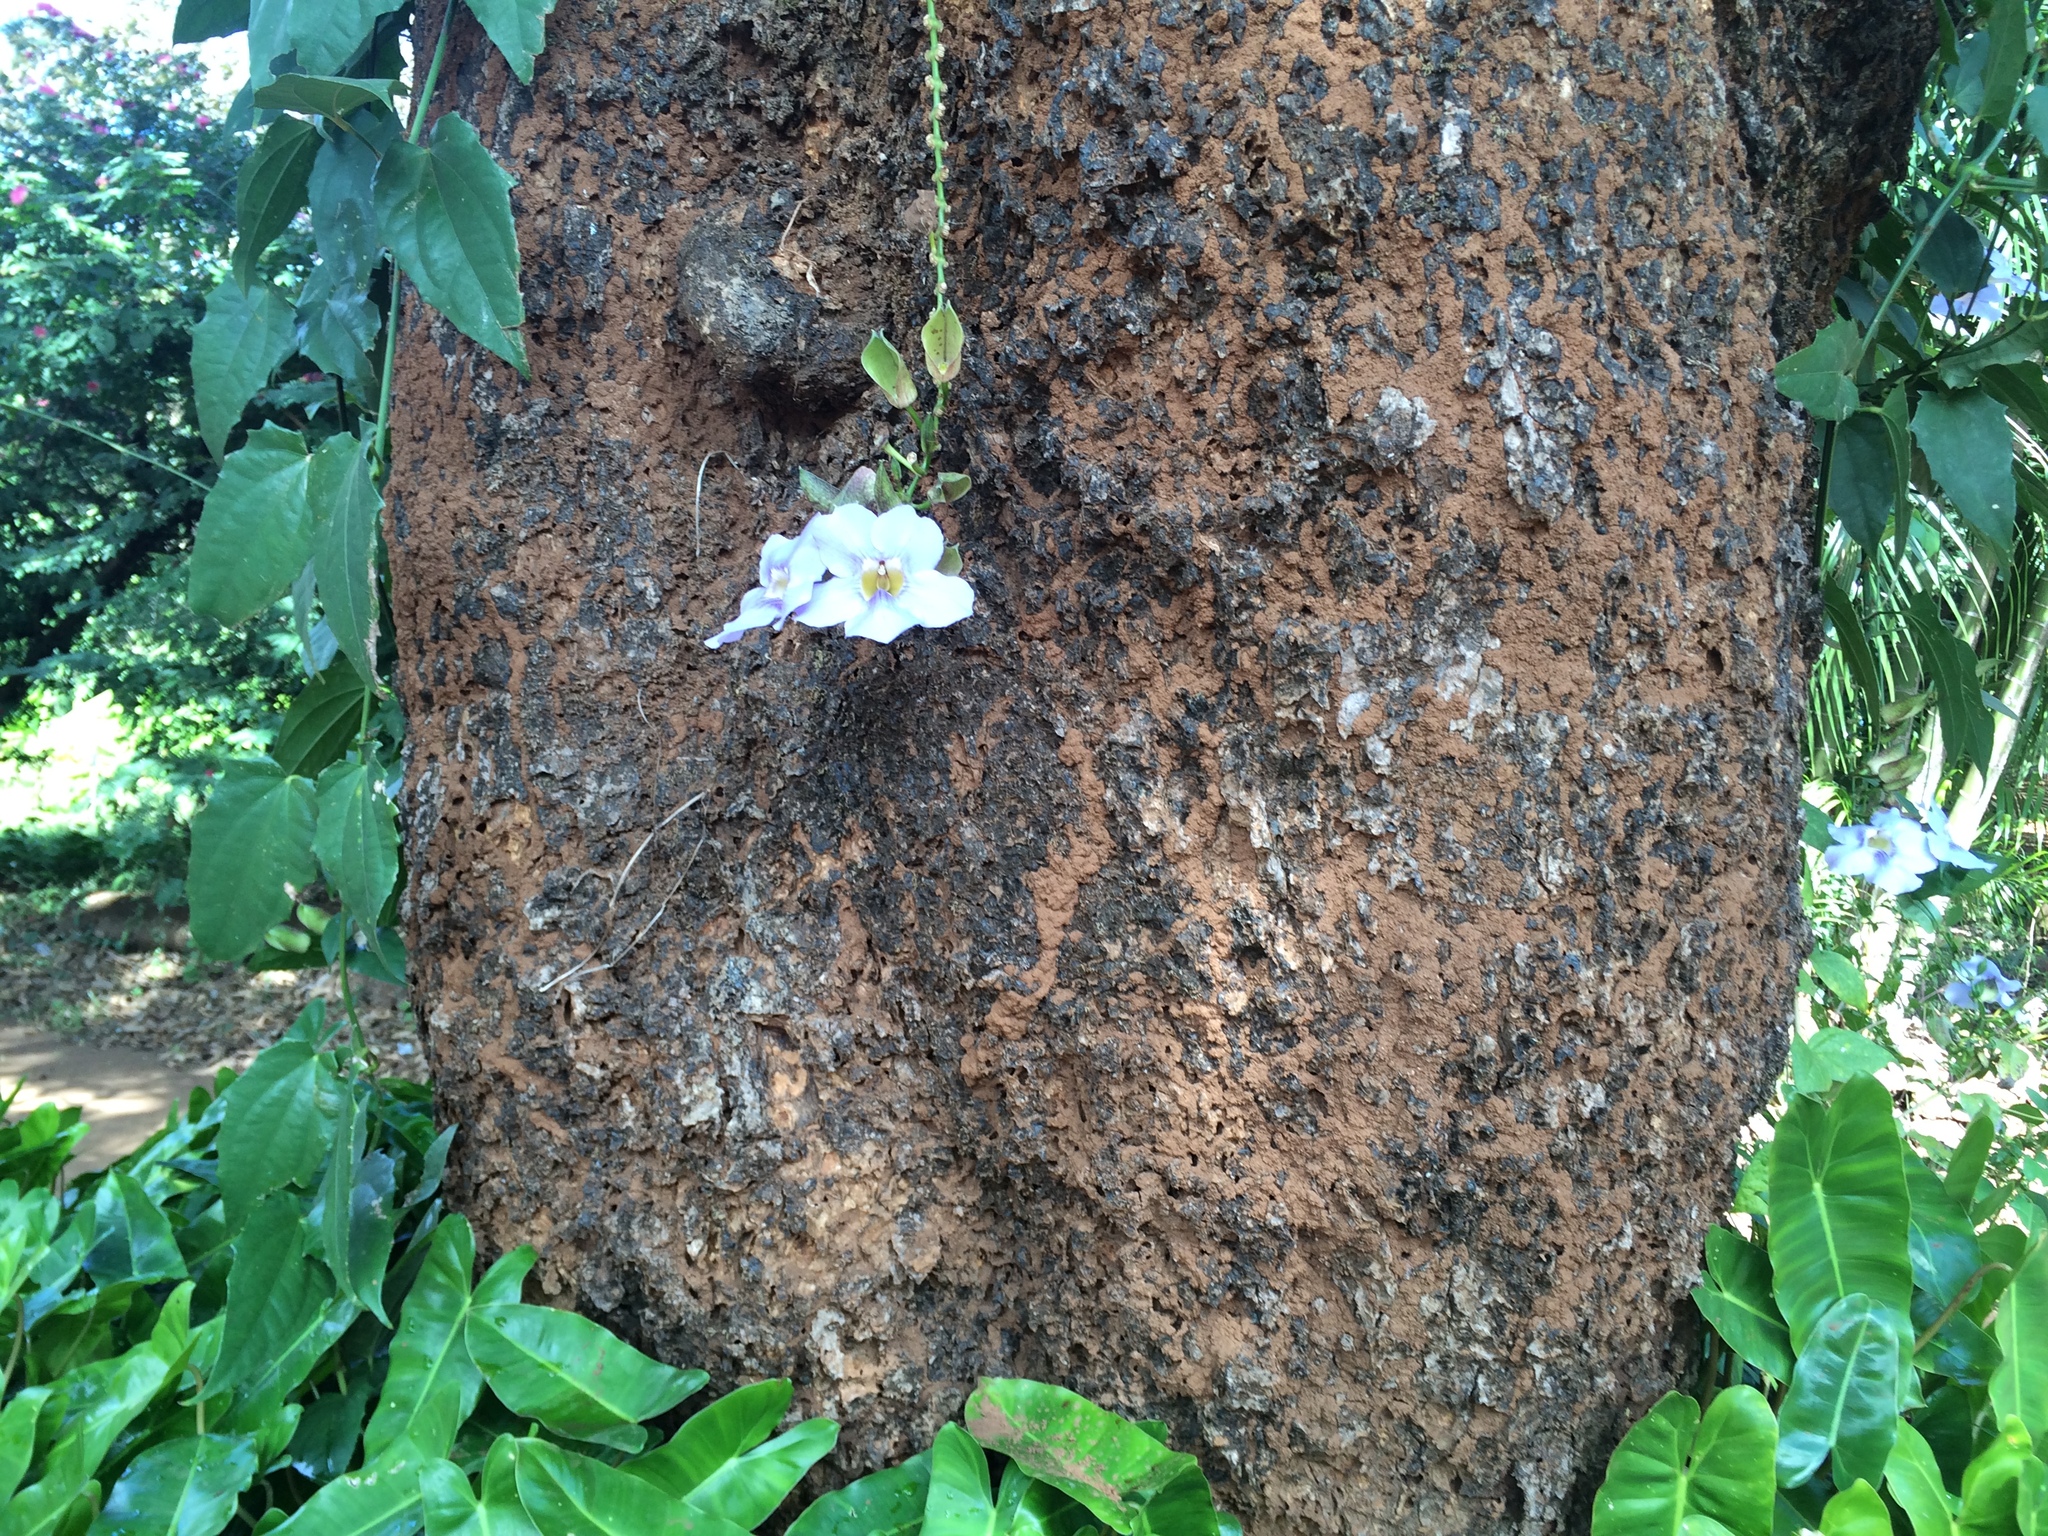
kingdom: Plantae
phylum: Tracheophyta
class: Magnoliopsida
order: Lamiales
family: Acanthaceae
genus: Thunbergia
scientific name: Thunbergia laurifolia
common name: Laurel-leaved thunbergia
